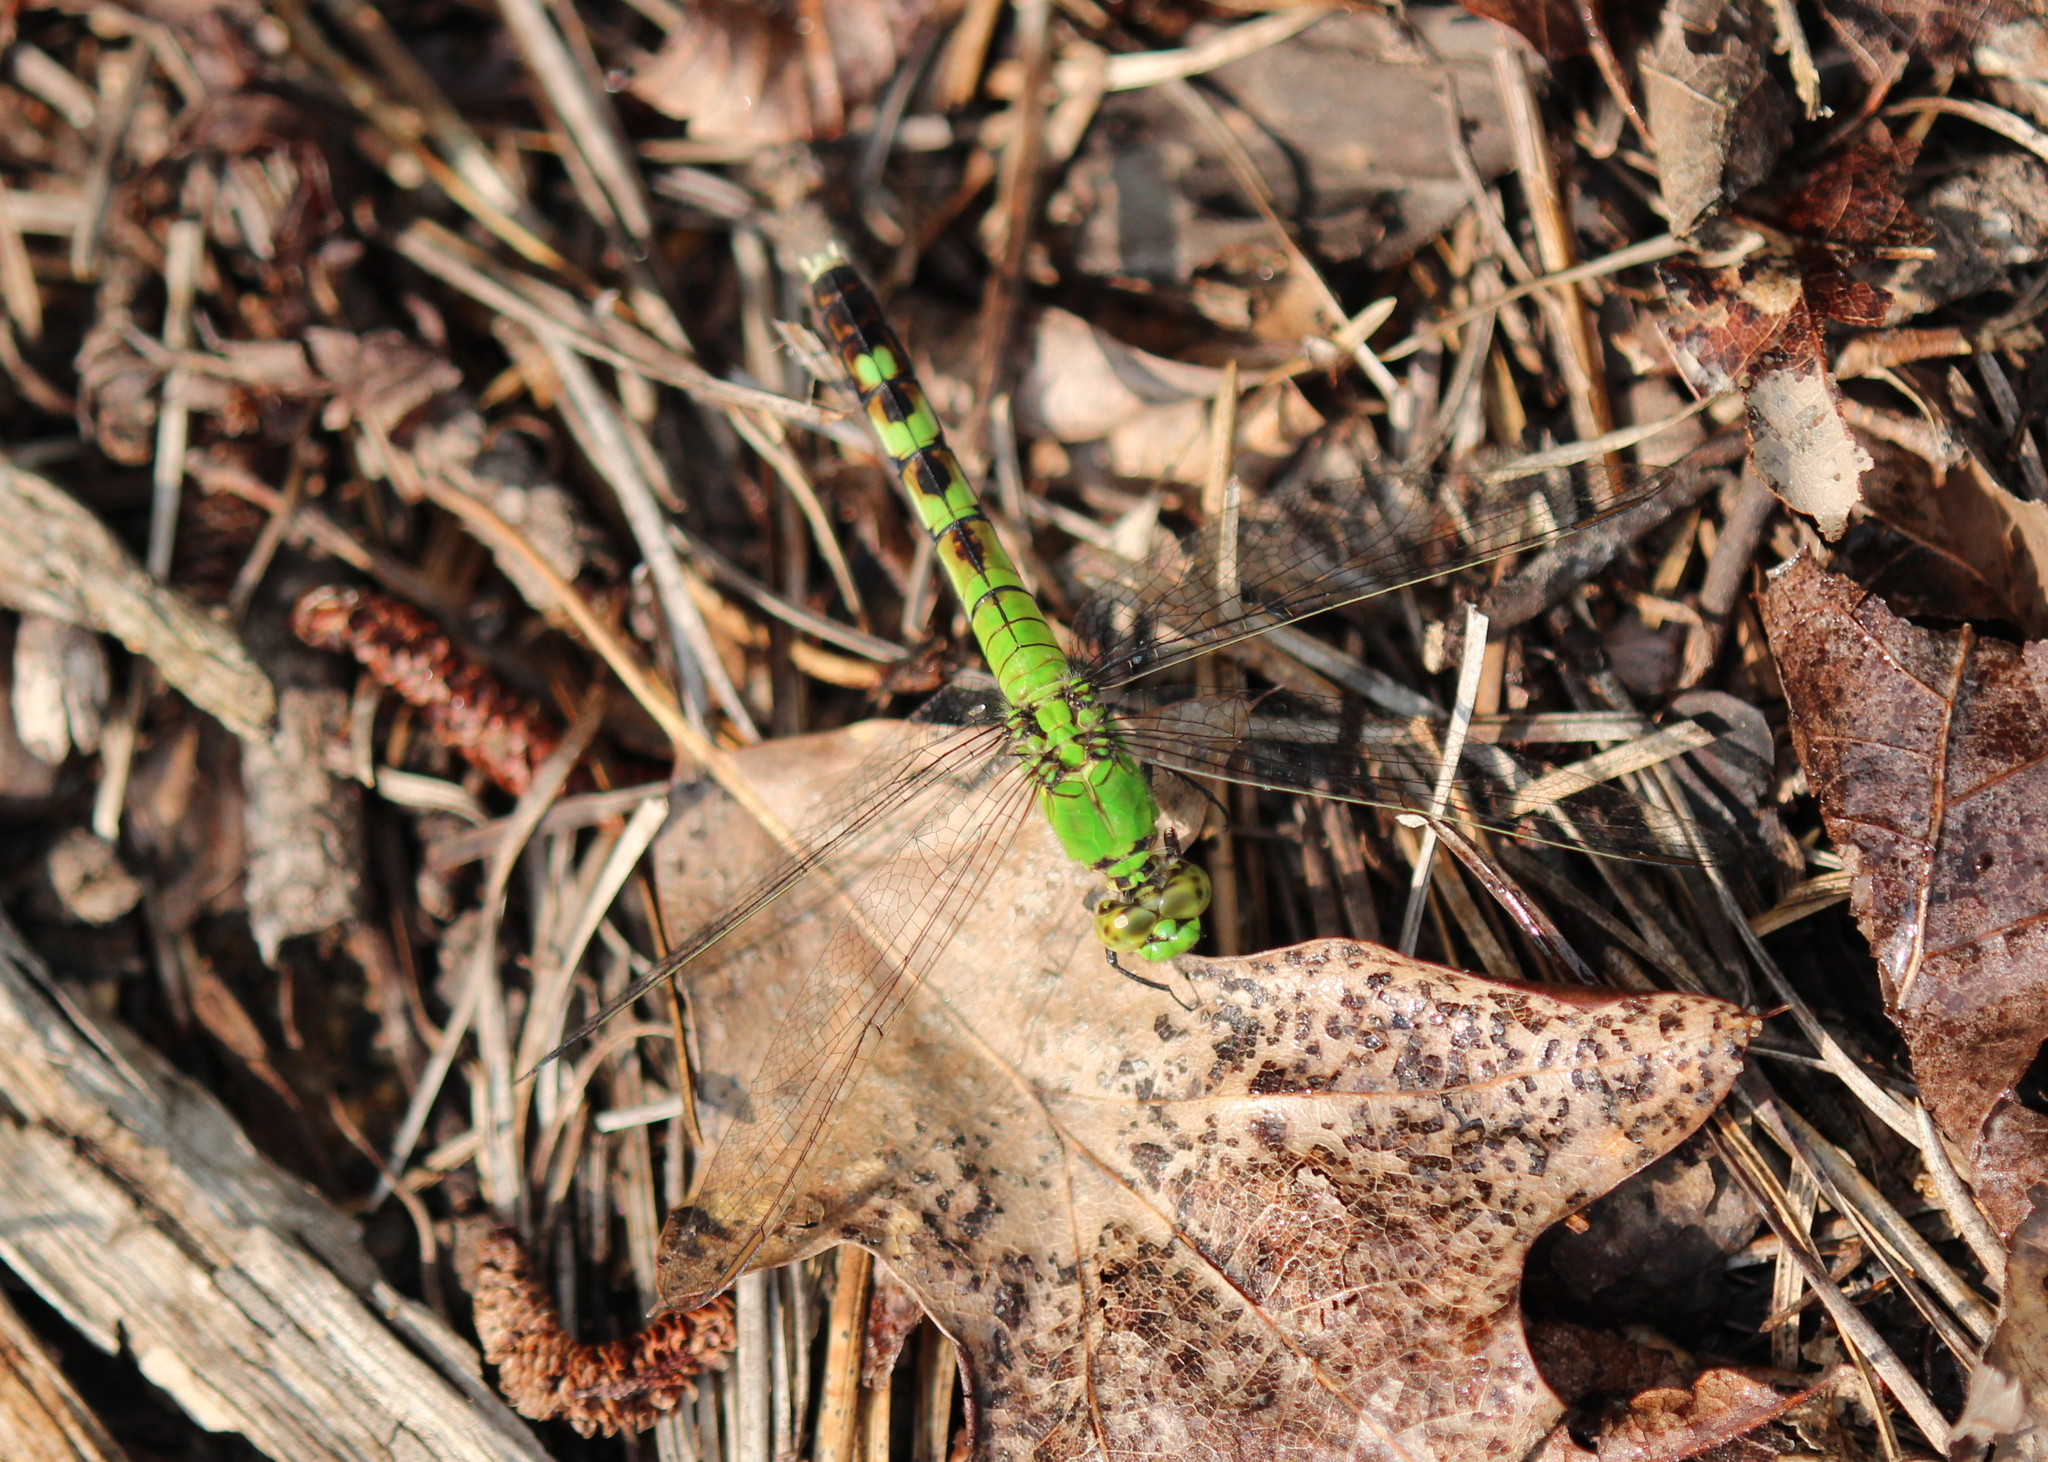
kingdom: Animalia
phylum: Arthropoda
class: Insecta
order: Odonata
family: Libellulidae
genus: Erythemis
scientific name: Erythemis simplicicollis
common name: Eastern pondhawk
